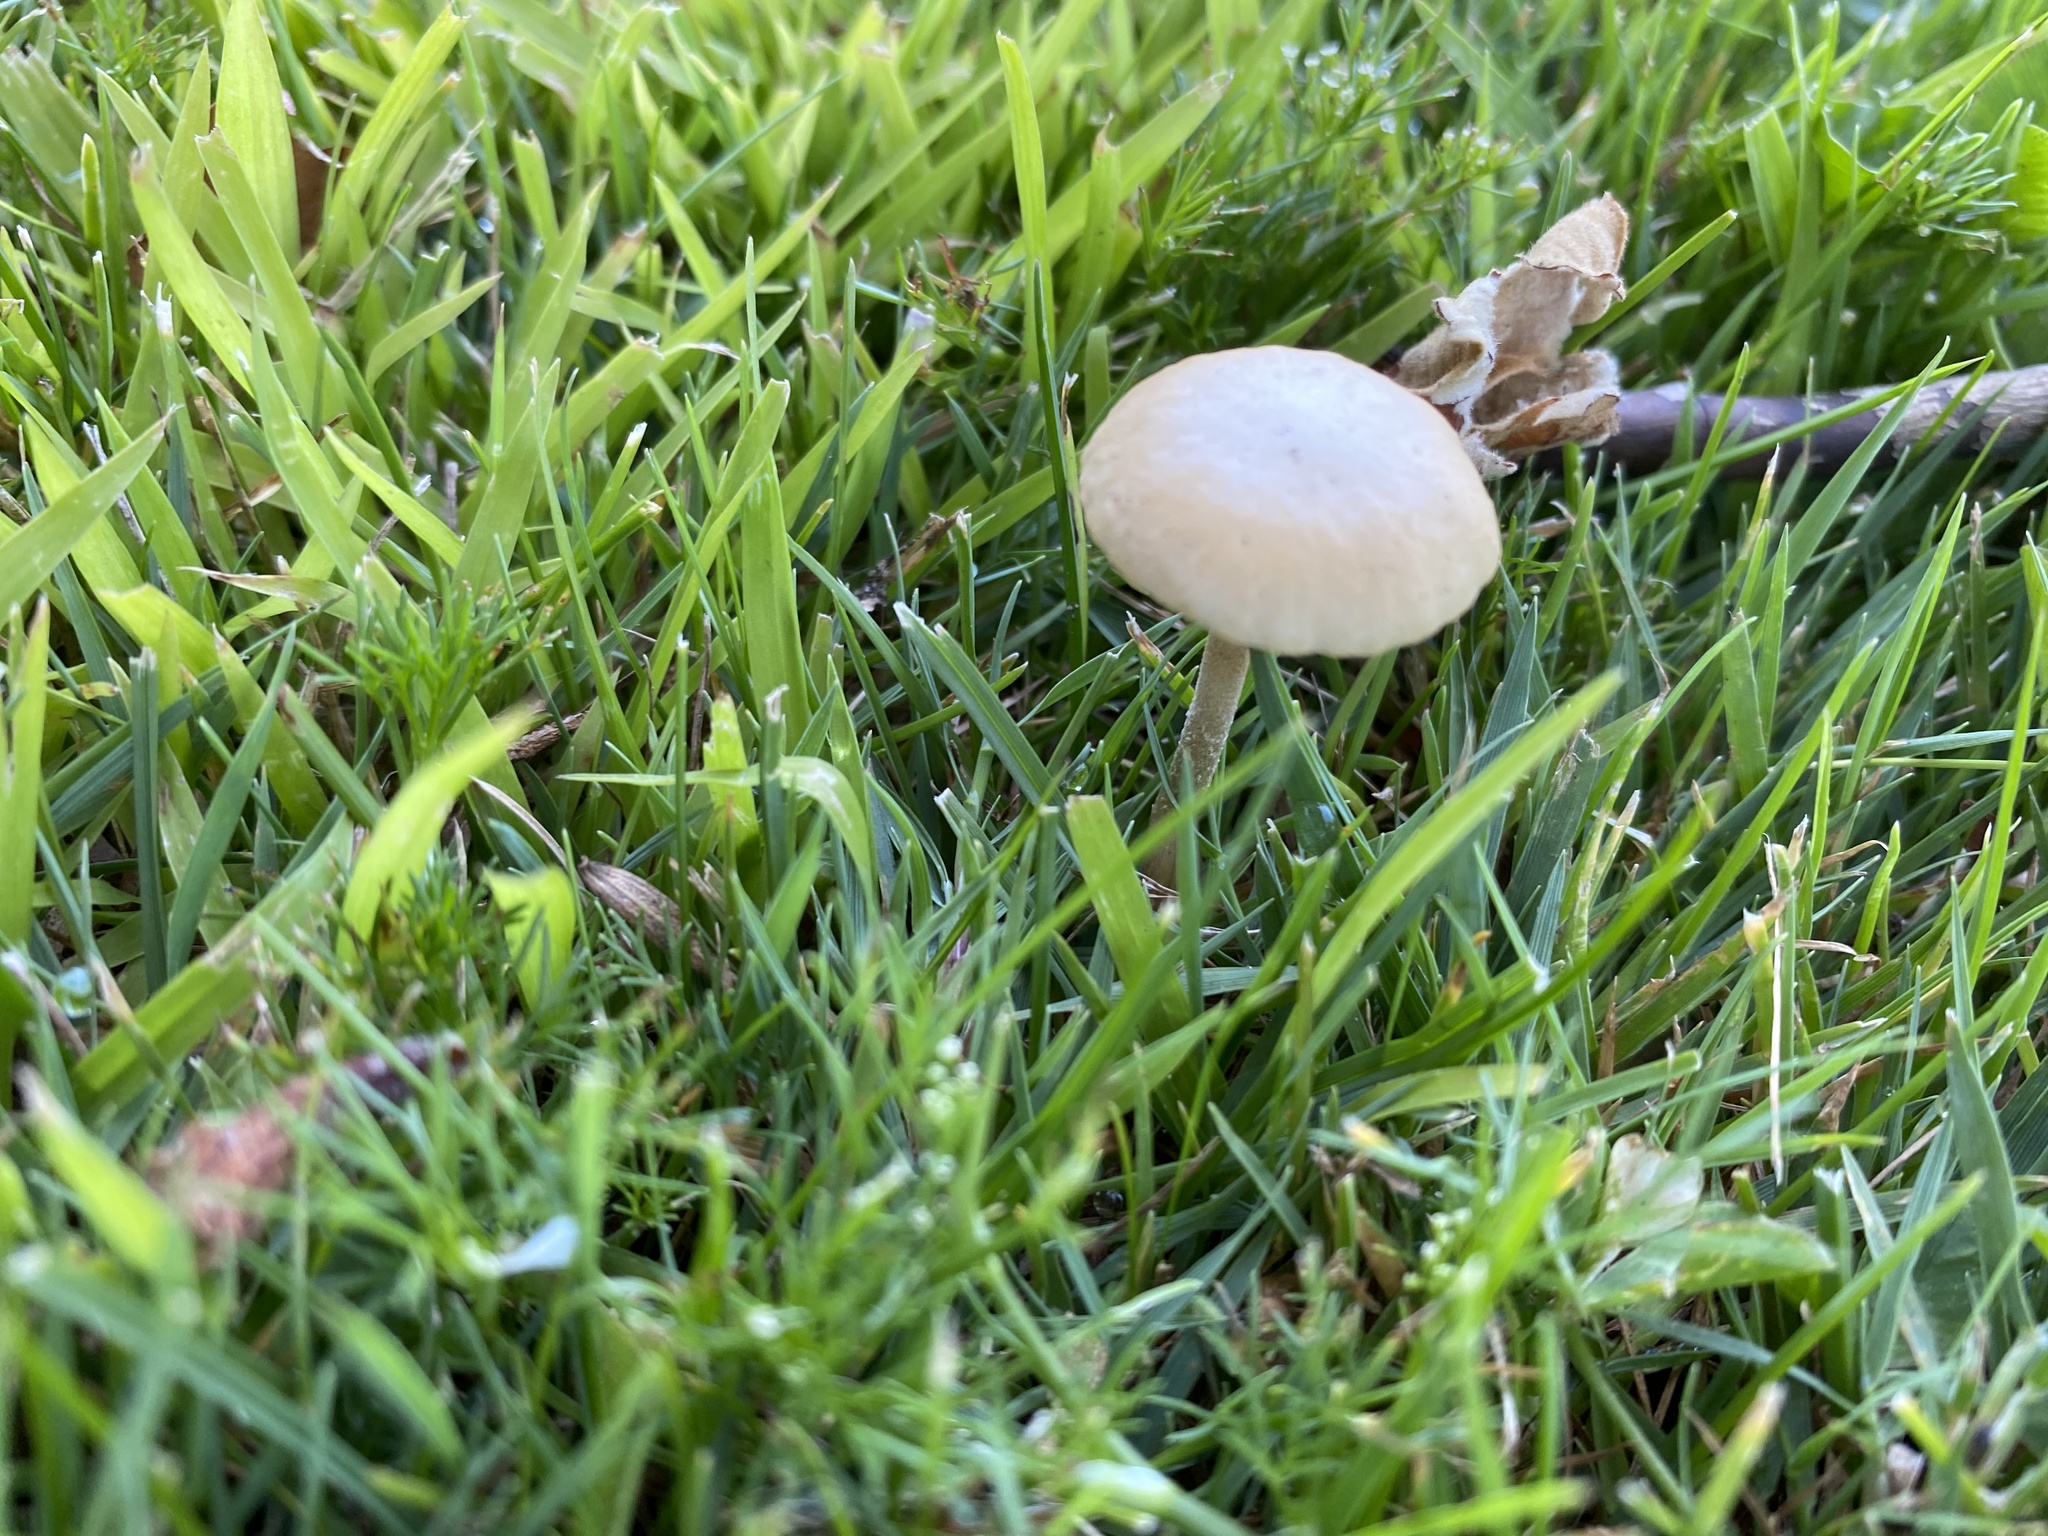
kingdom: Fungi
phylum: Basidiomycota
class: Agaricomycetes
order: Agaricales
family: Strophariaceae
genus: Agrocybe
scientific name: Agrocybe pediades
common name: Common fieldcap
